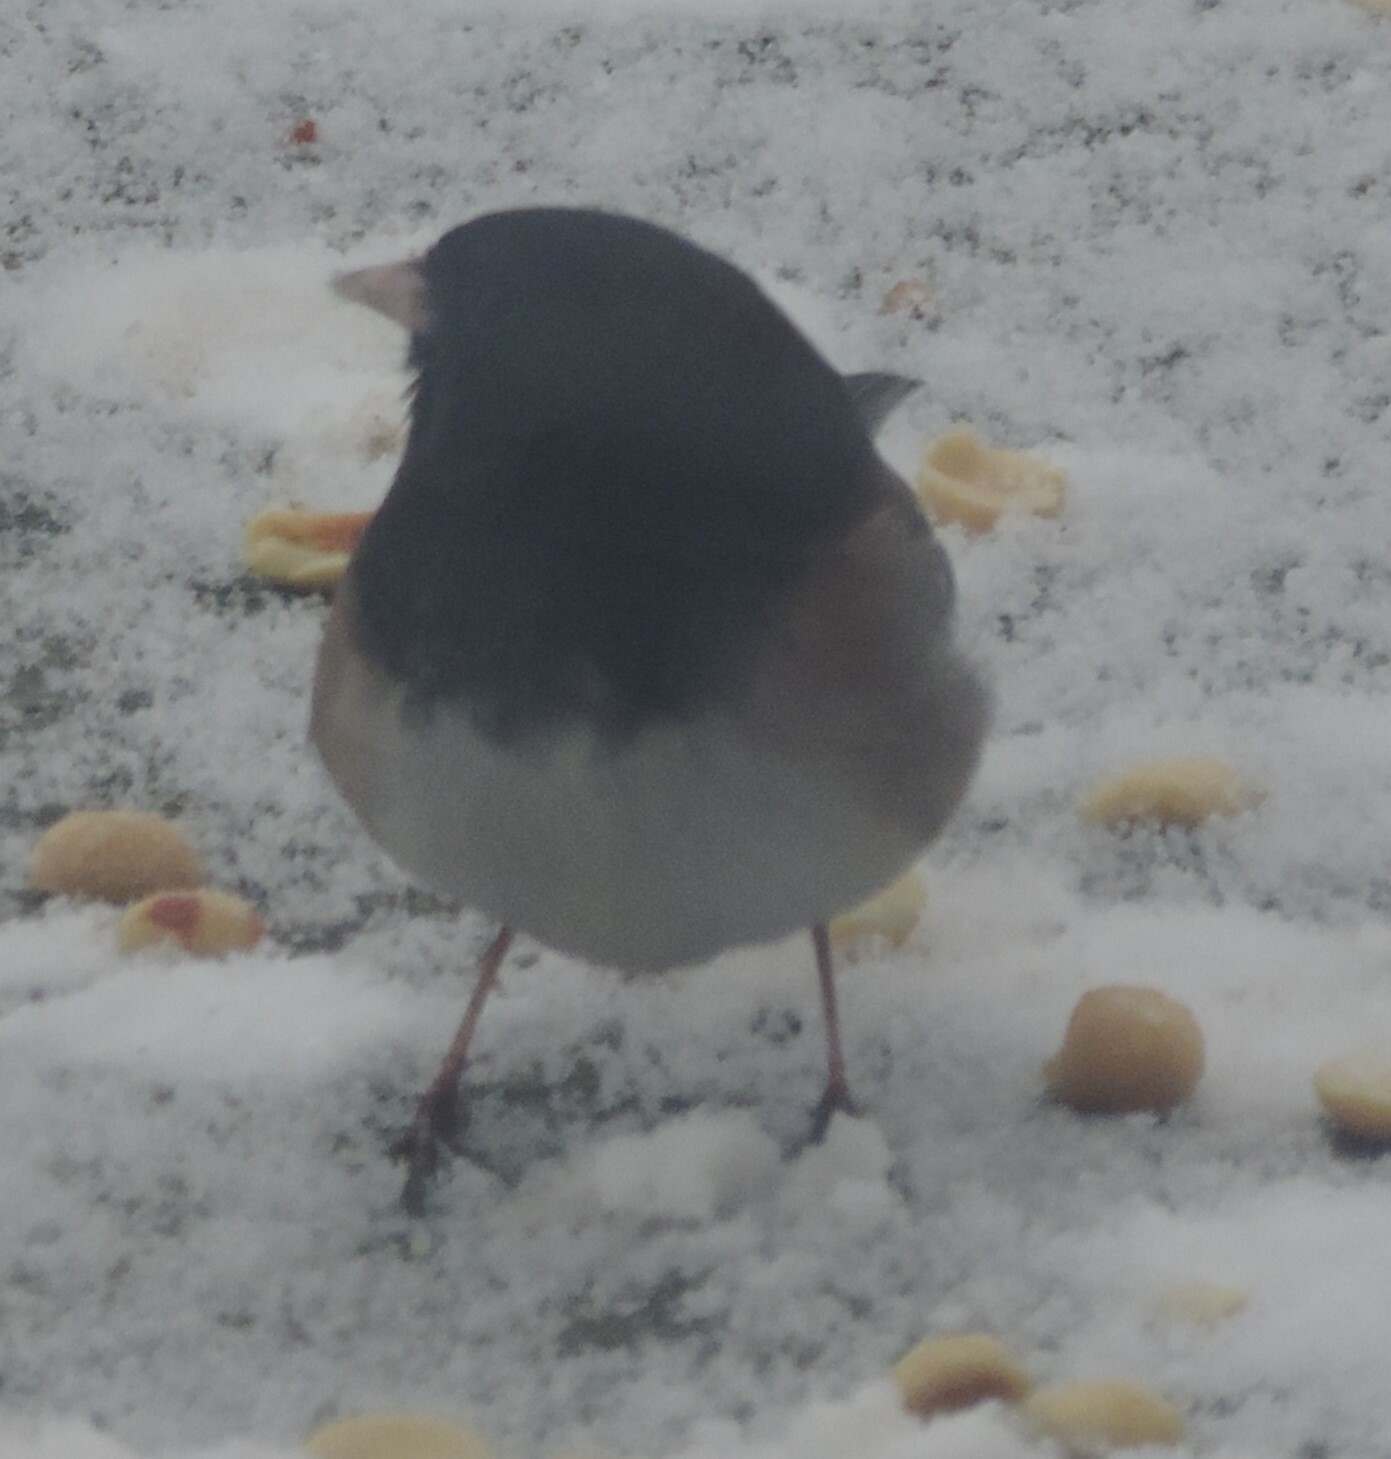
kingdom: Animalia
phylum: Chordata
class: Aves
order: Passeriformes
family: Passerellidae
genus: Junco
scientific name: Junco hyemalis
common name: Dark-eyed junco
